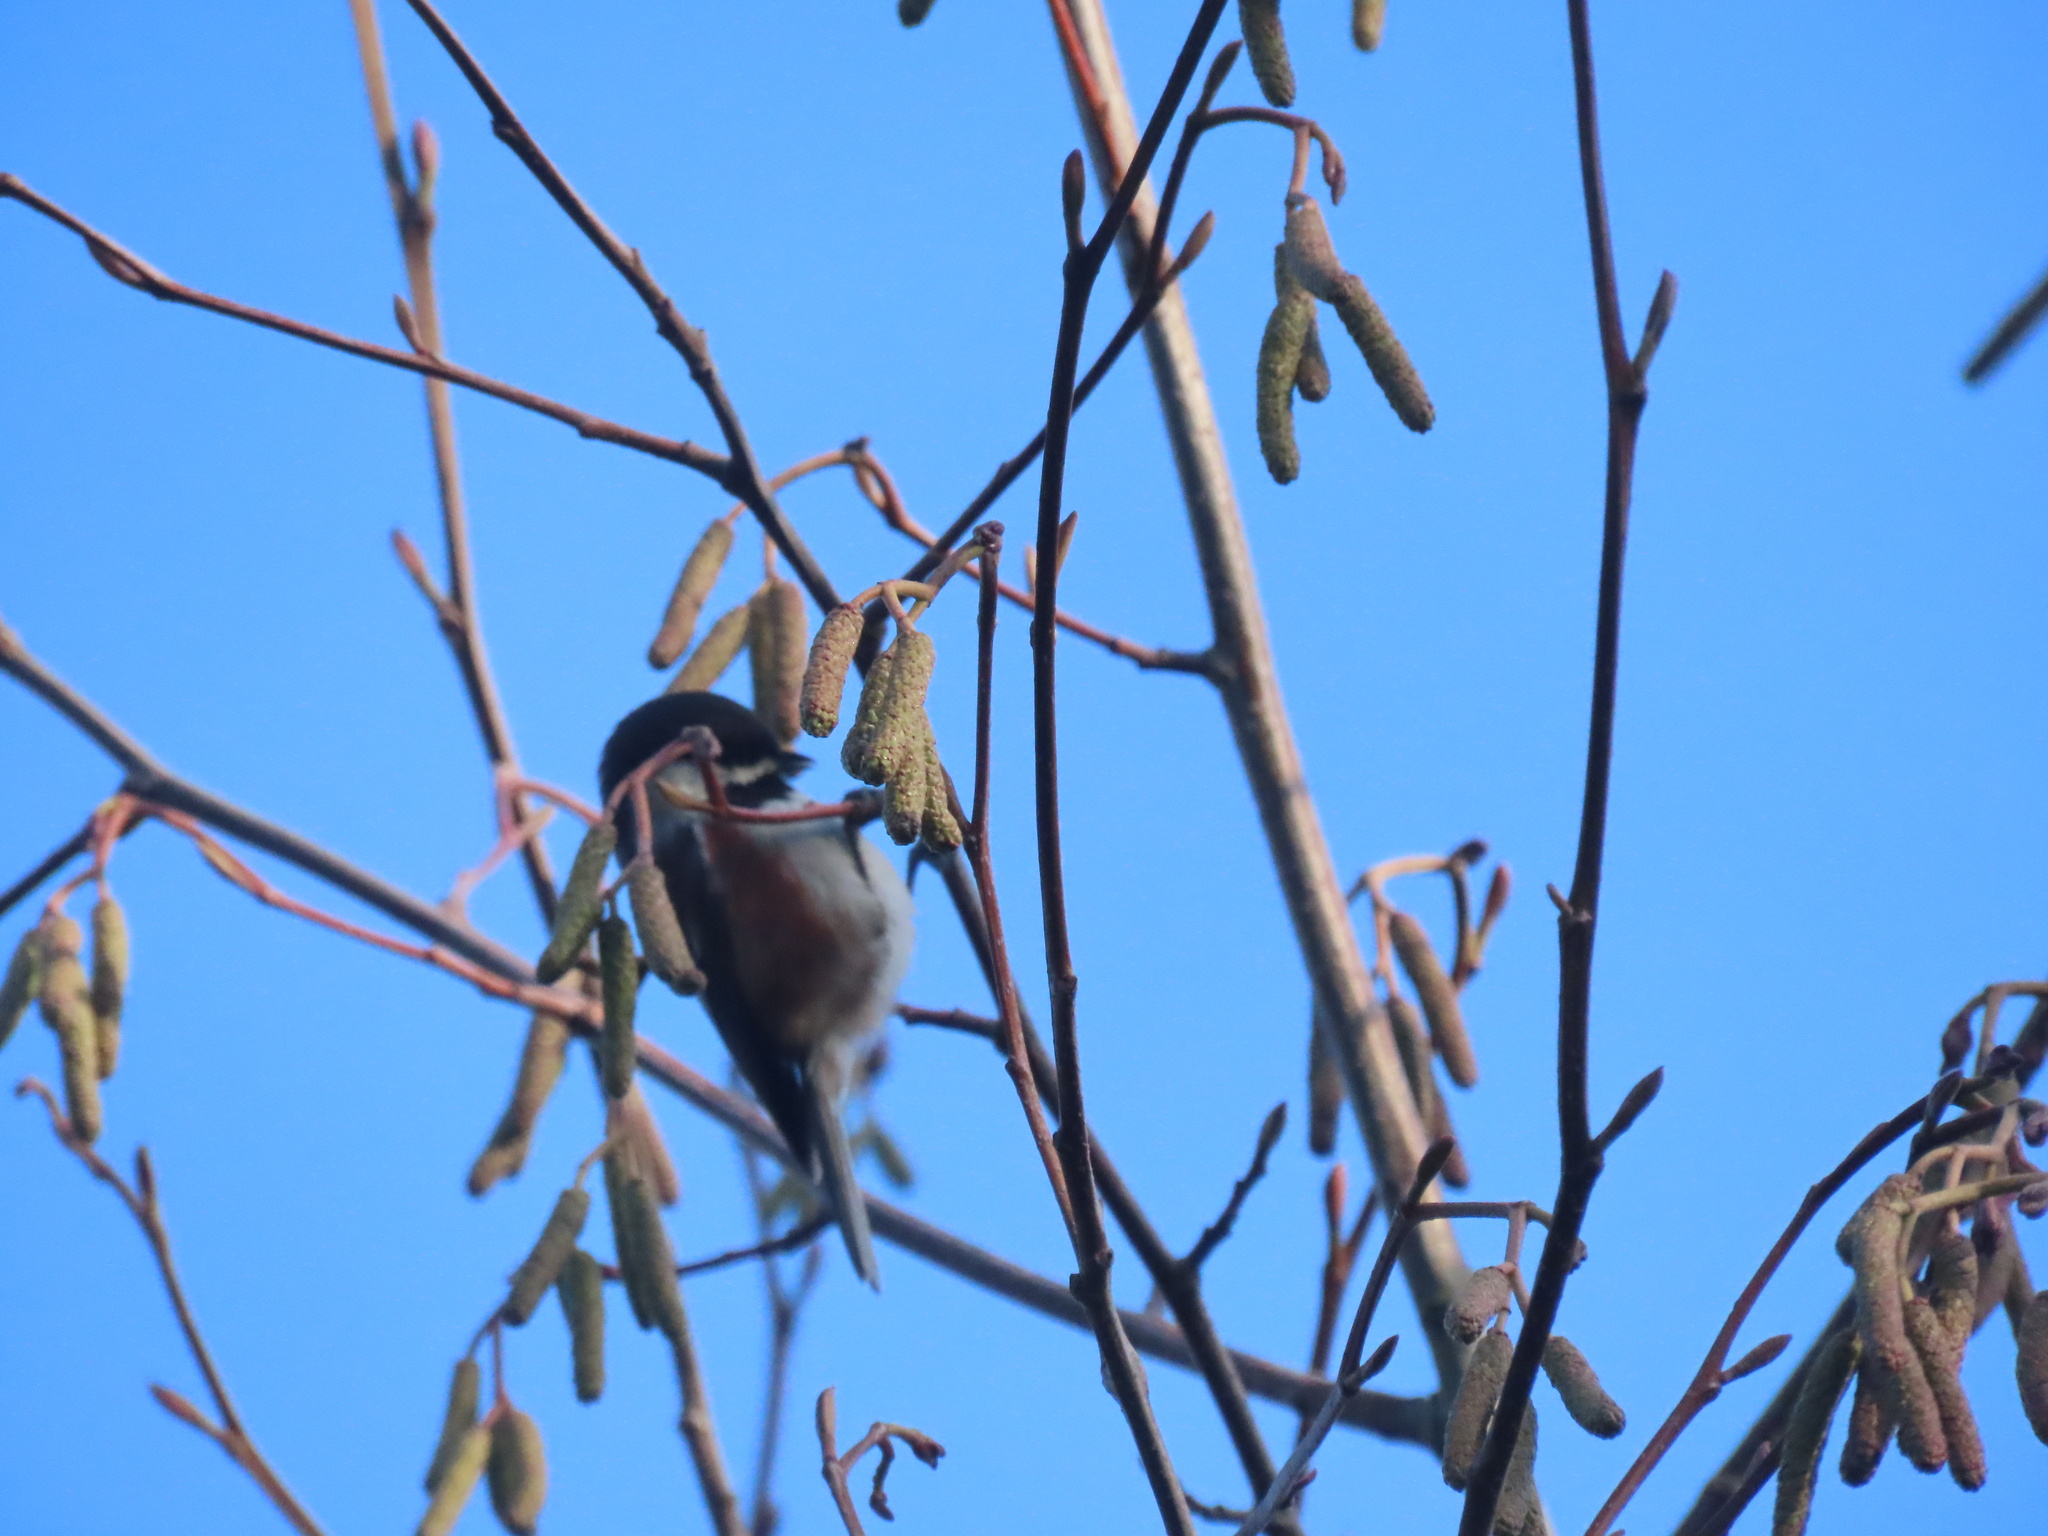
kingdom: Animalia
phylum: Chordata
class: Aves
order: Passeriformes
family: Paridae
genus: Poecile
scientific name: Poecile rufescens
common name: Chestnut-backed chickadee
